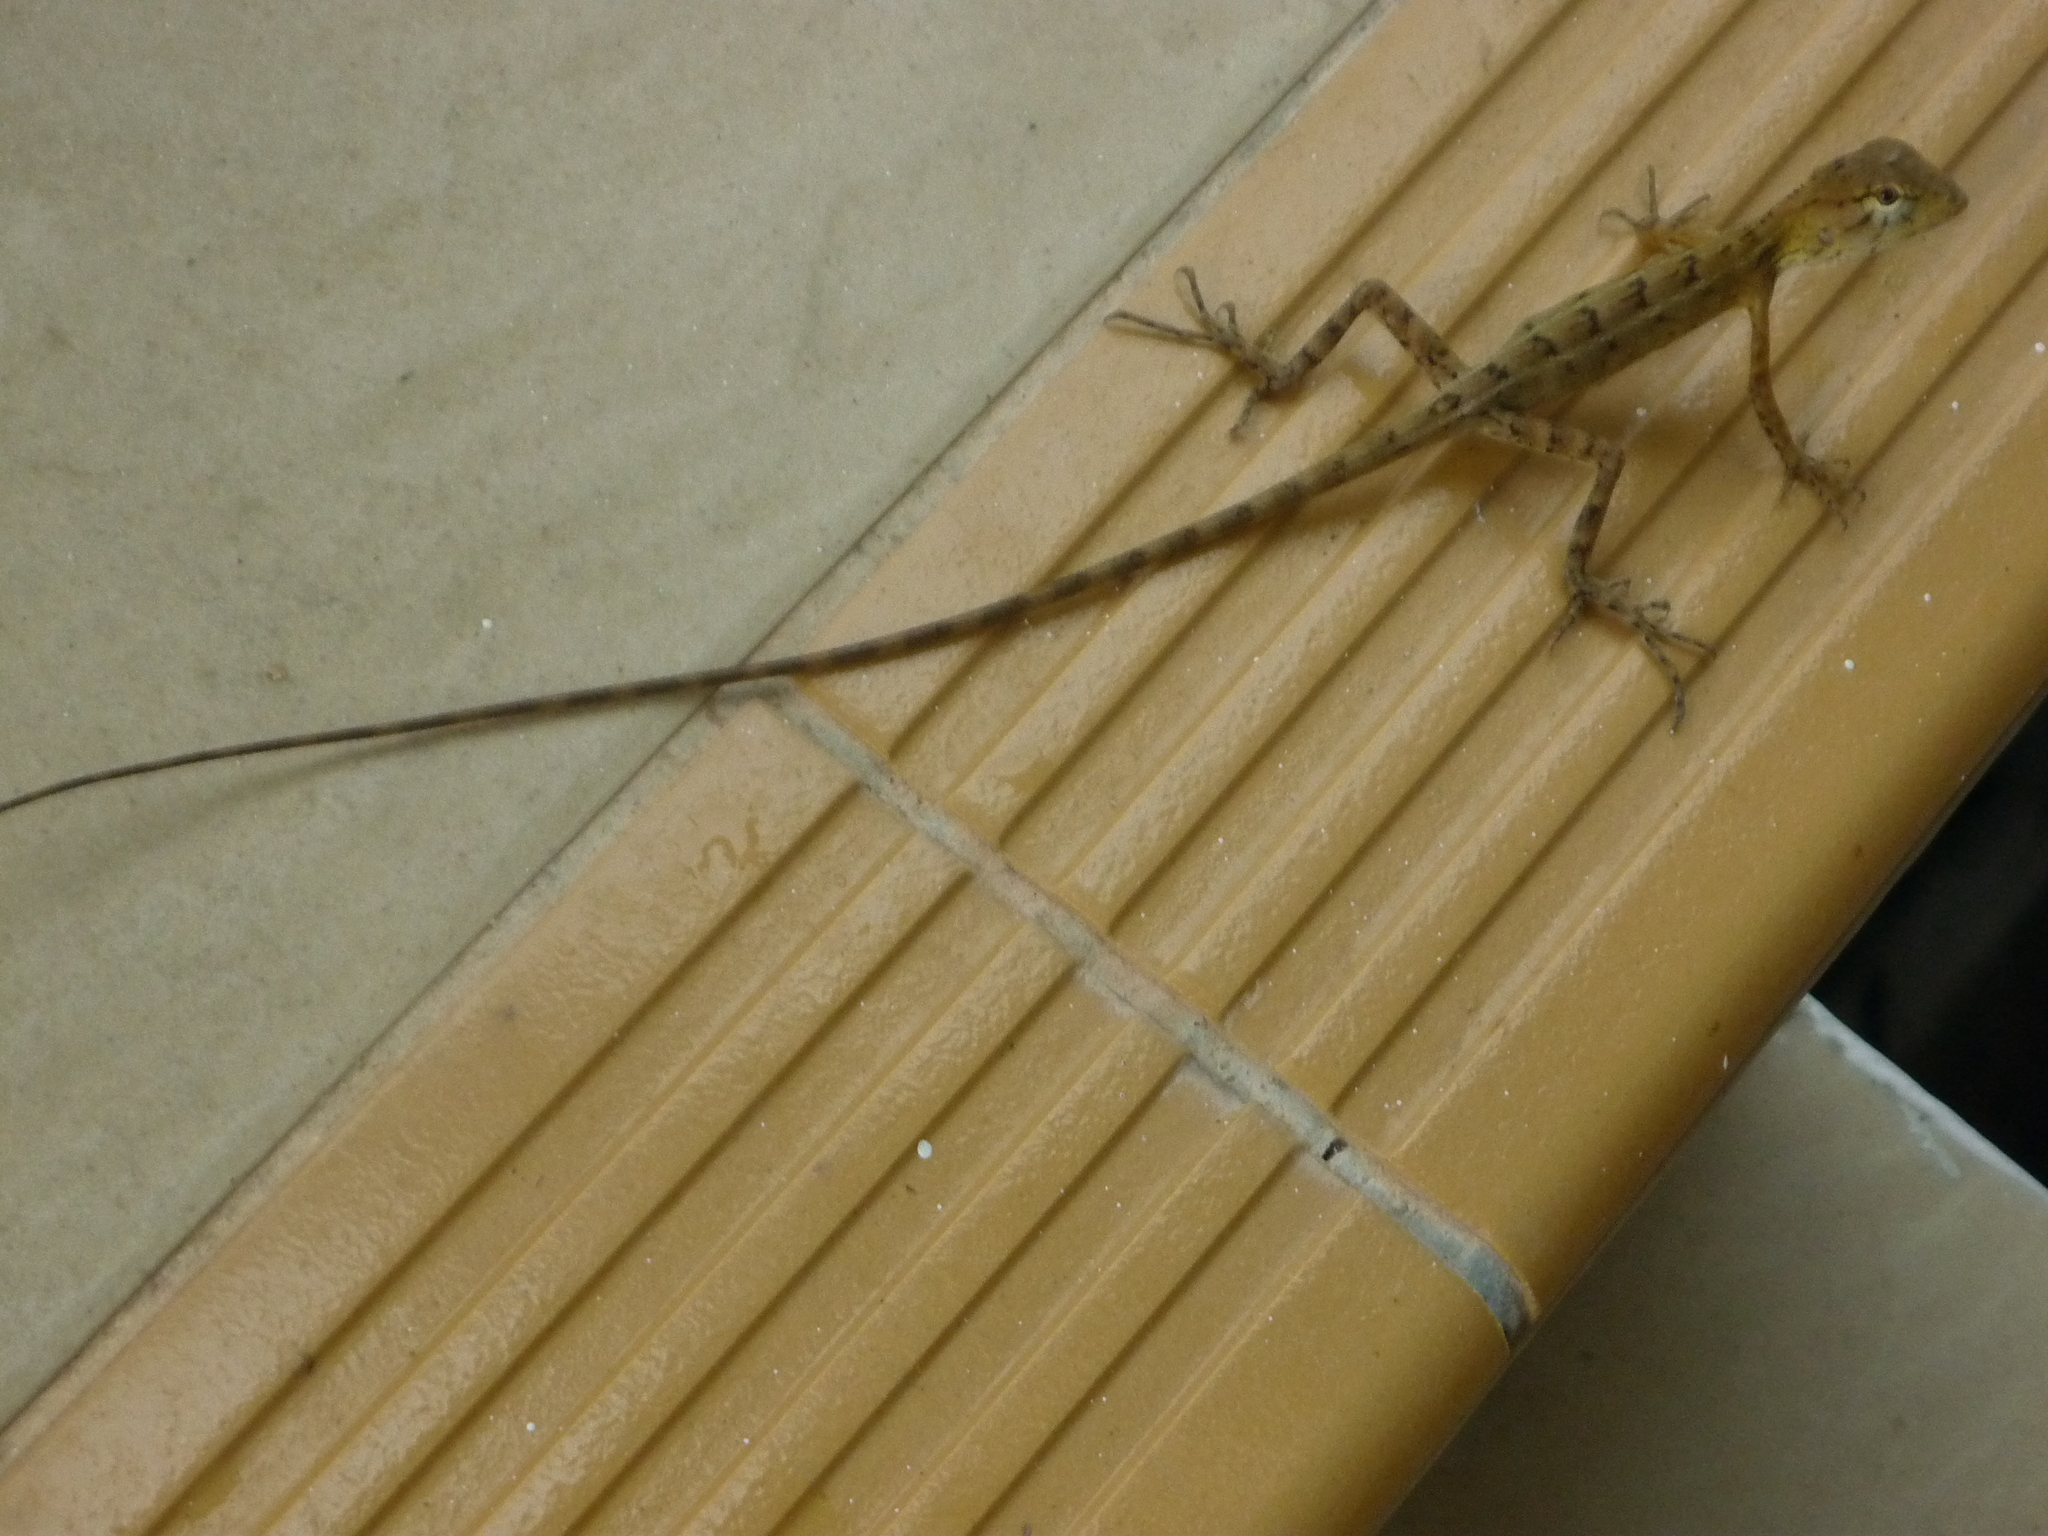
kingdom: Animalia
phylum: Chordata
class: Squamata
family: Agamidae
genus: Calotes
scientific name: Calotes versicolor
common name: Oriental garden lizard
